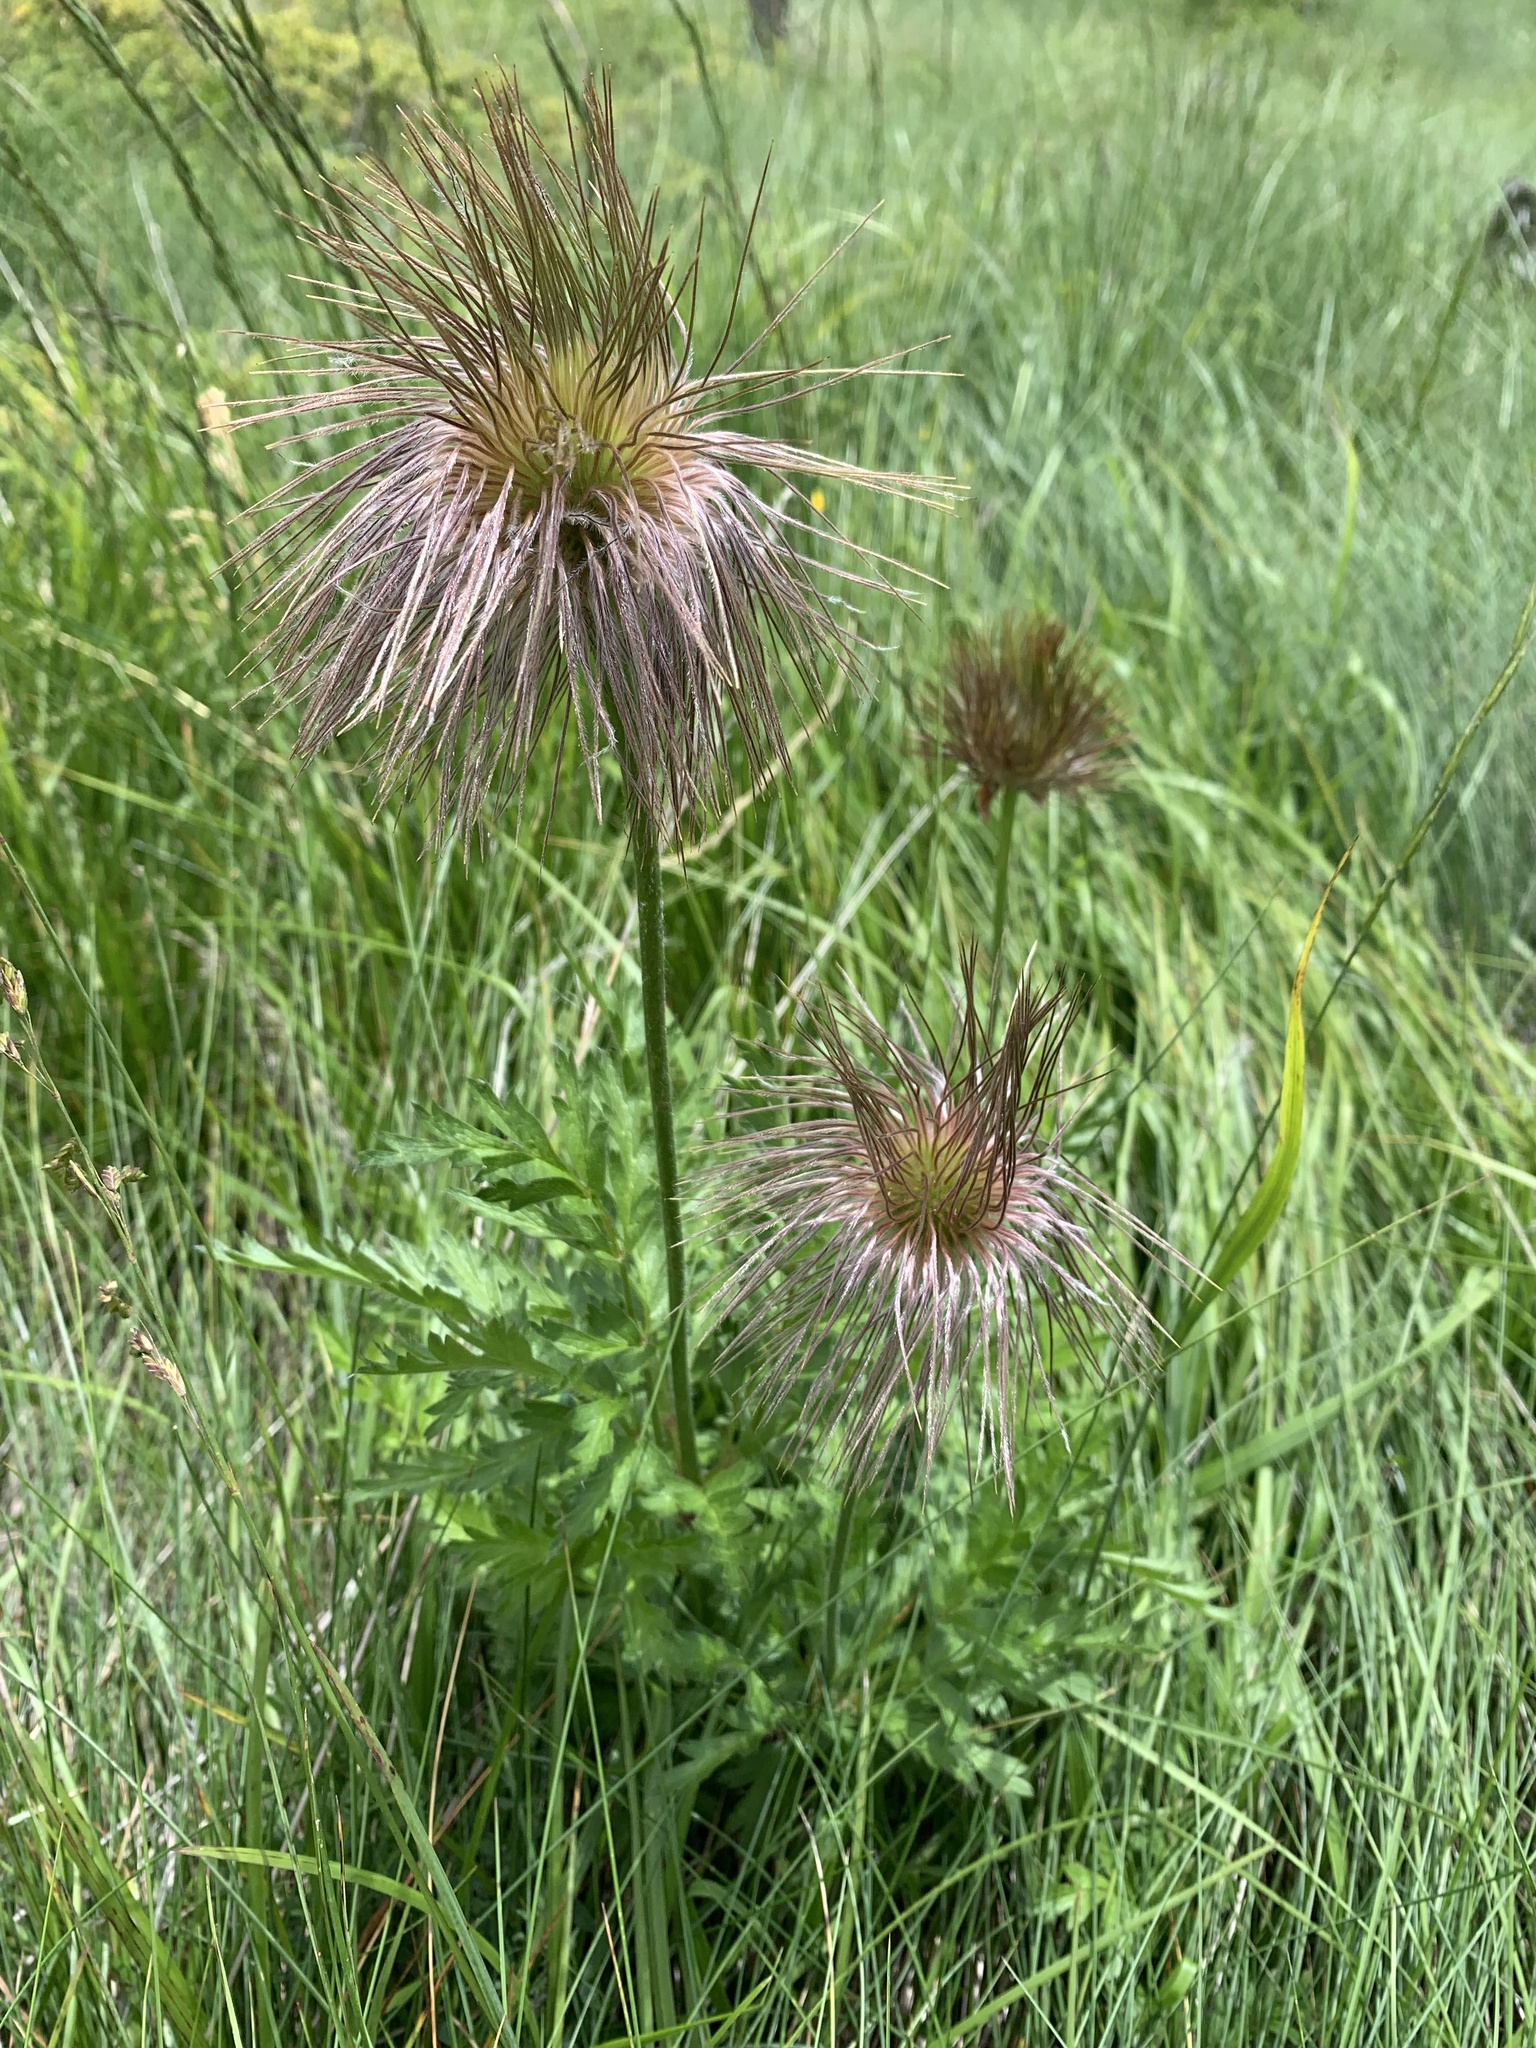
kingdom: Plantae
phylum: Tracheophyta
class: Magnoliopsida
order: Ranunculales
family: Ranunculaceae
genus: Pulsatilla
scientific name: Pulsatilla alpina
